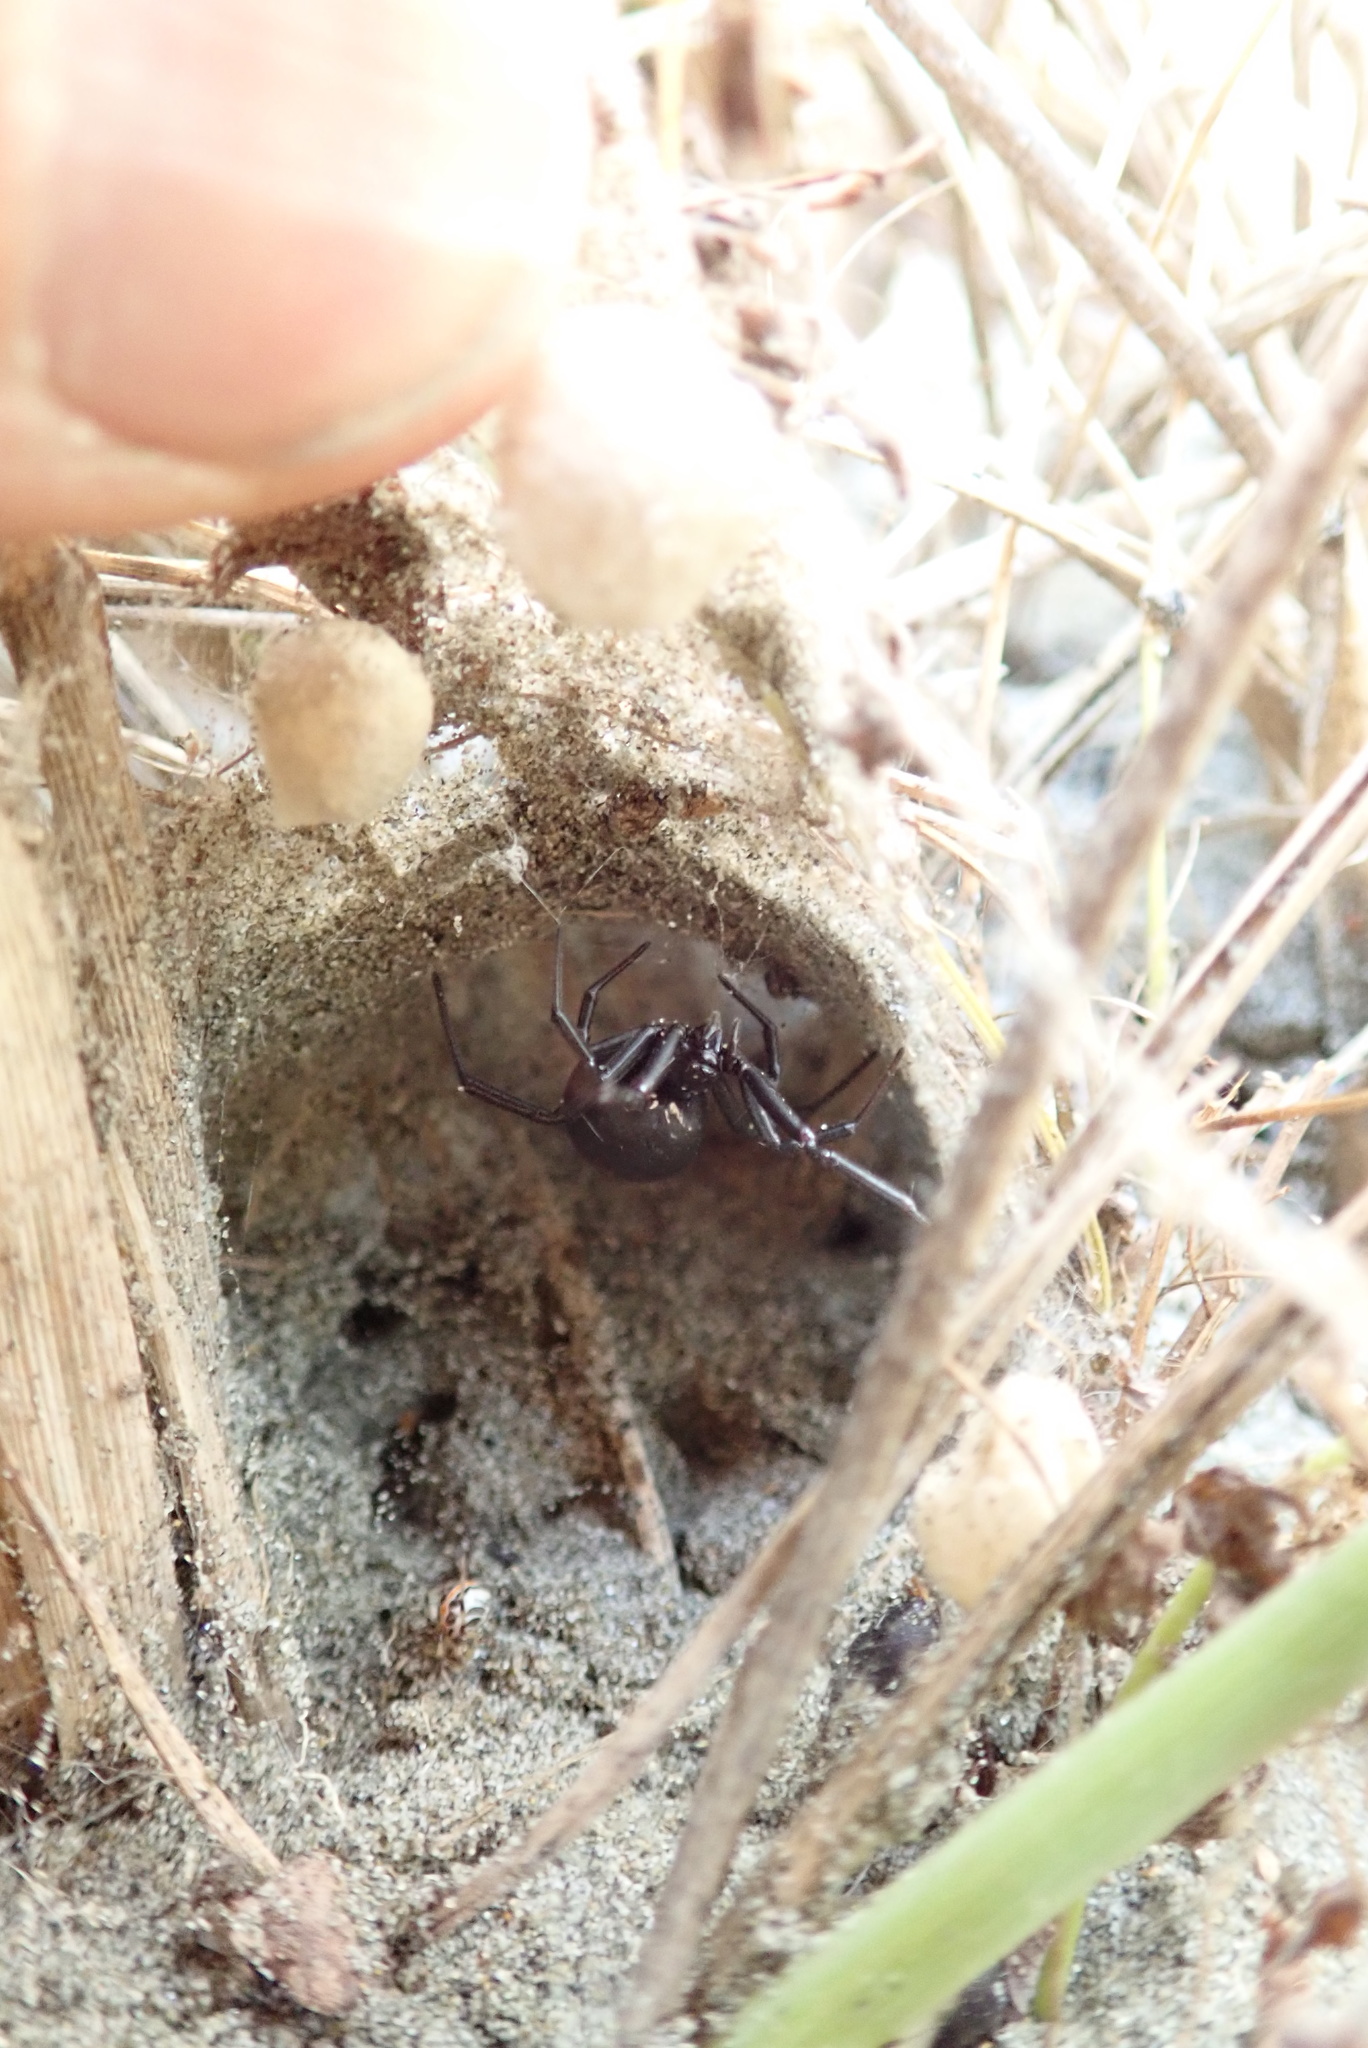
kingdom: Animalia
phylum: Arthropoda
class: Arachnida
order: Araneae
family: Theridiidae
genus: Latrodectus
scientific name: Latrodectus katipo
